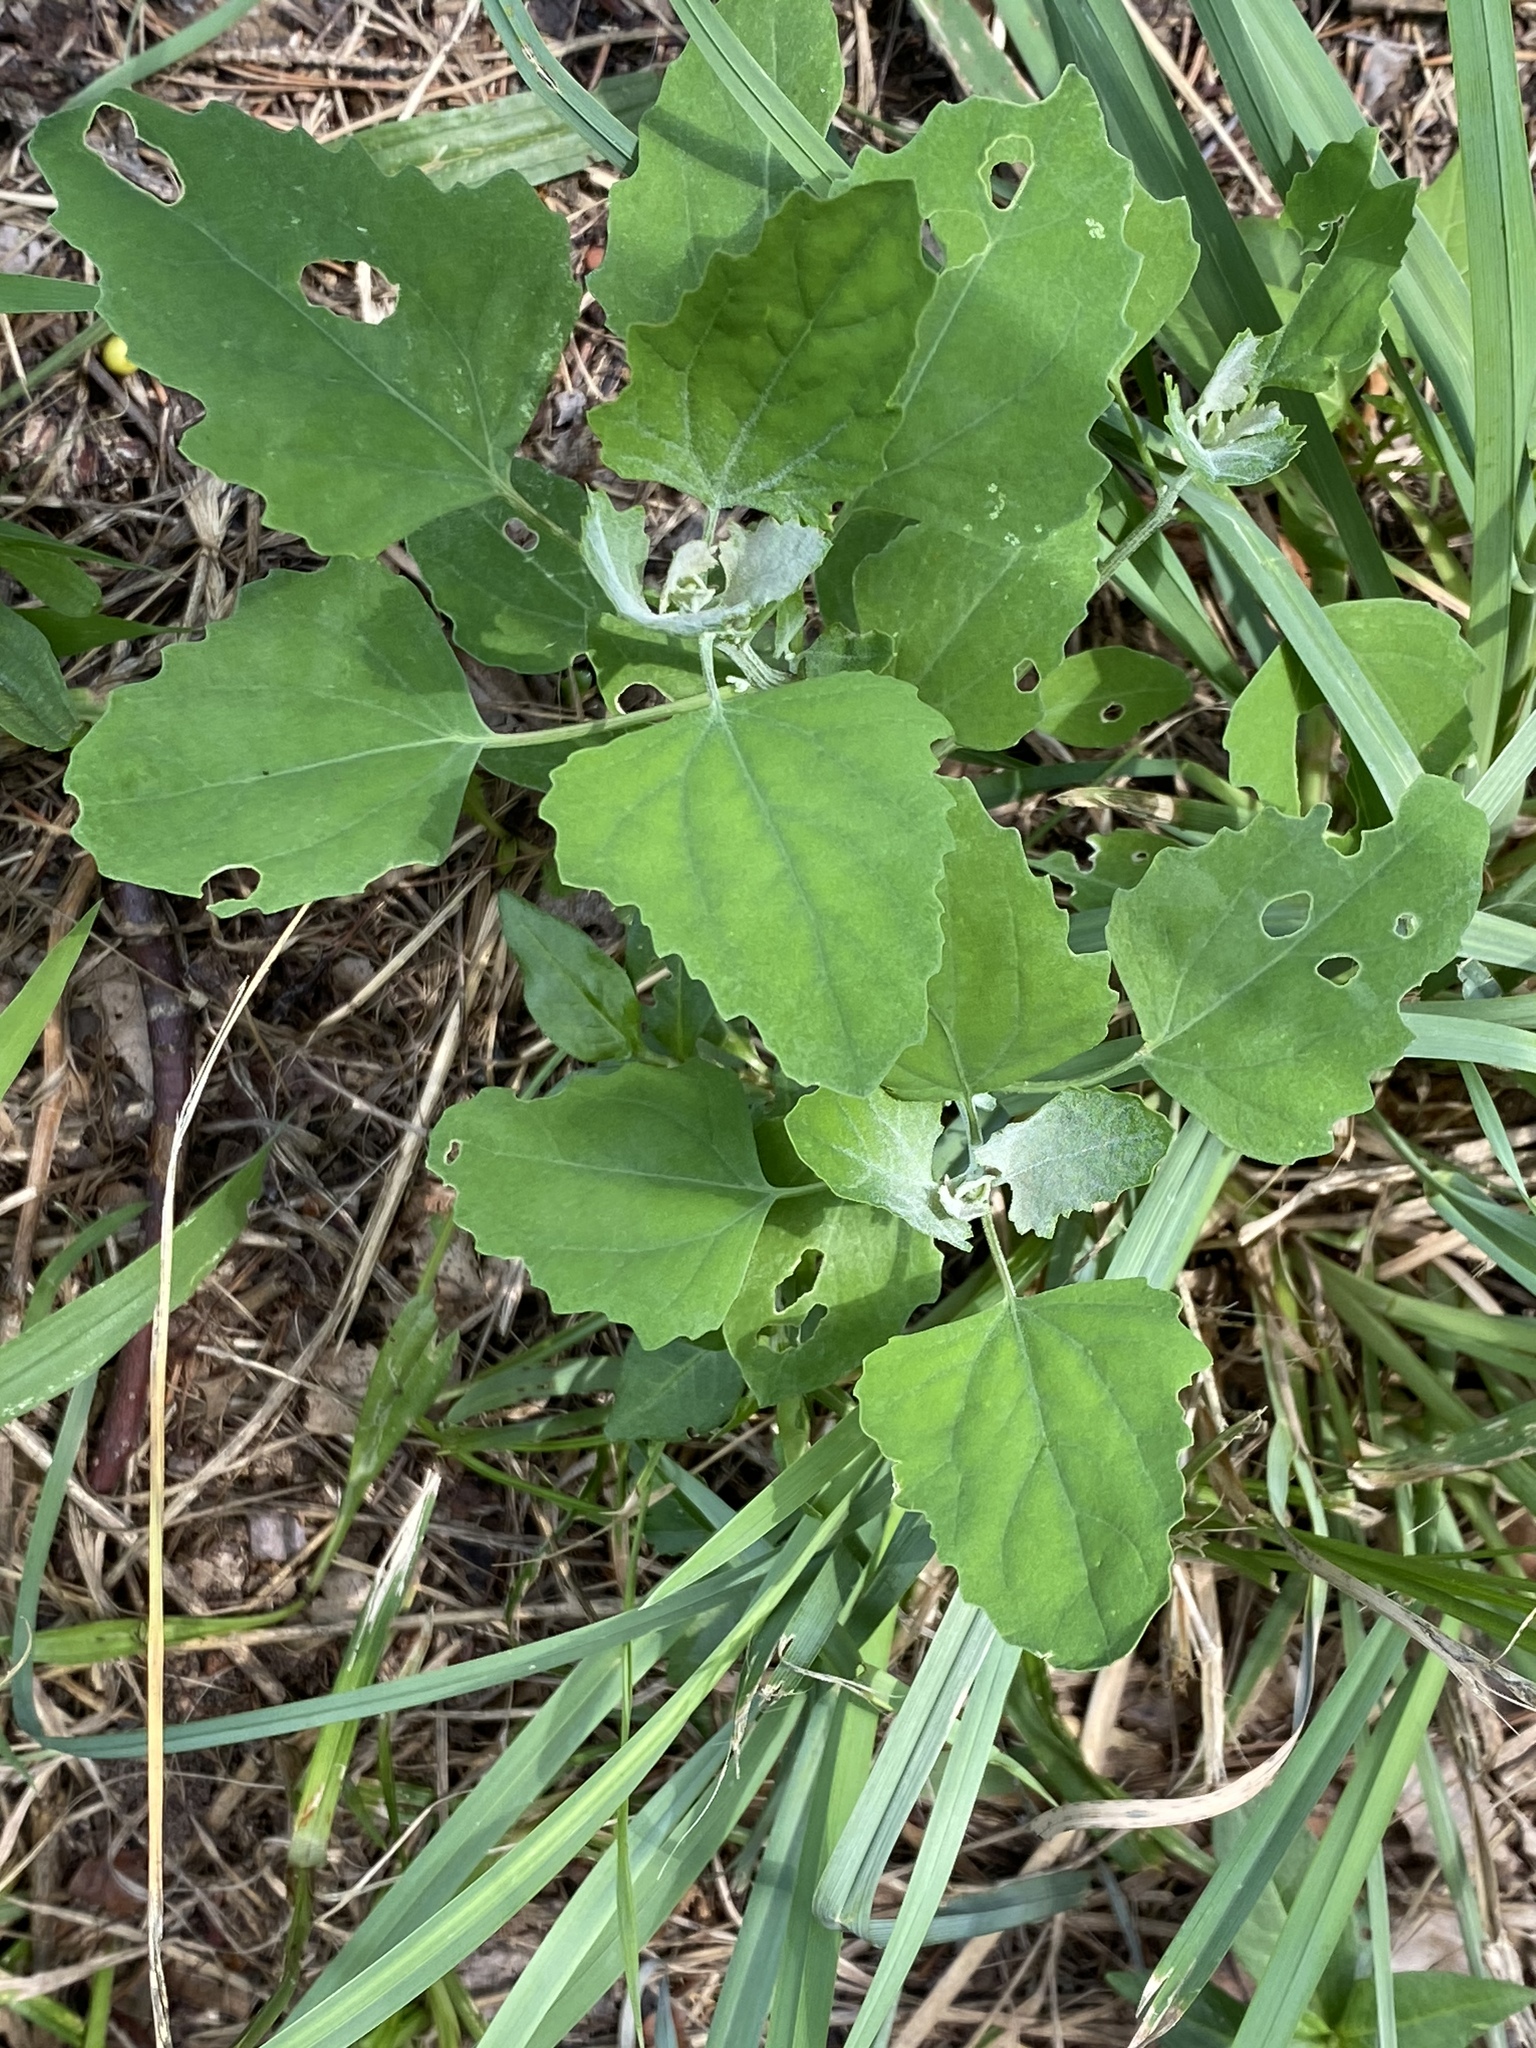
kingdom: Plantae
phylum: Tracheophyta
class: Magnoliopsida
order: Caryophyllales
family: Amaranthaceae
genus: Chenopodium
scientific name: Chenopodium album
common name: Fat-hen
